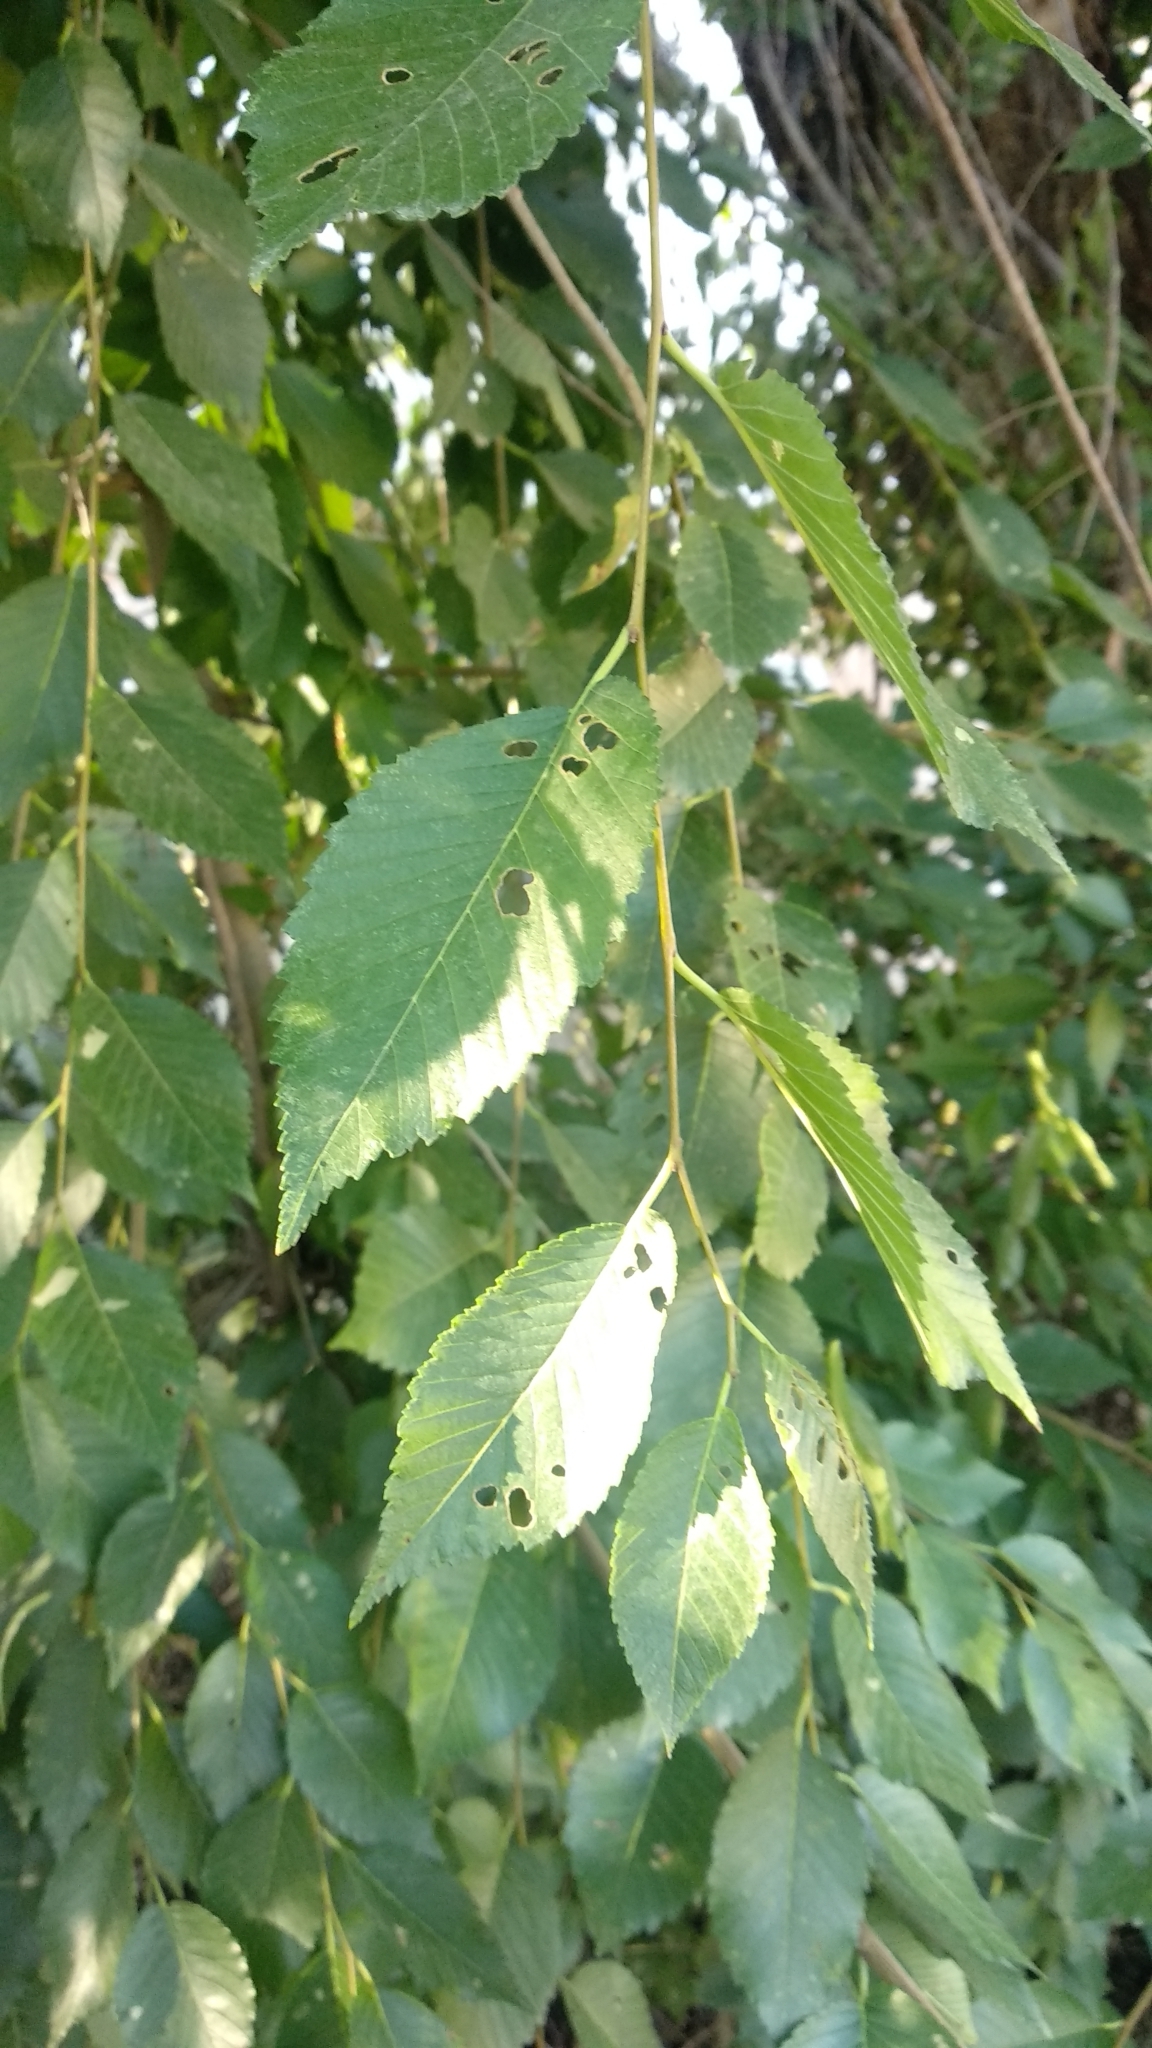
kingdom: Plantae
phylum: Tracheophyta
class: Magnoliopsida
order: Rosales
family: Ulmaceae
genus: Ulmus
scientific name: Ulmus pumila
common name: Siberian elm
